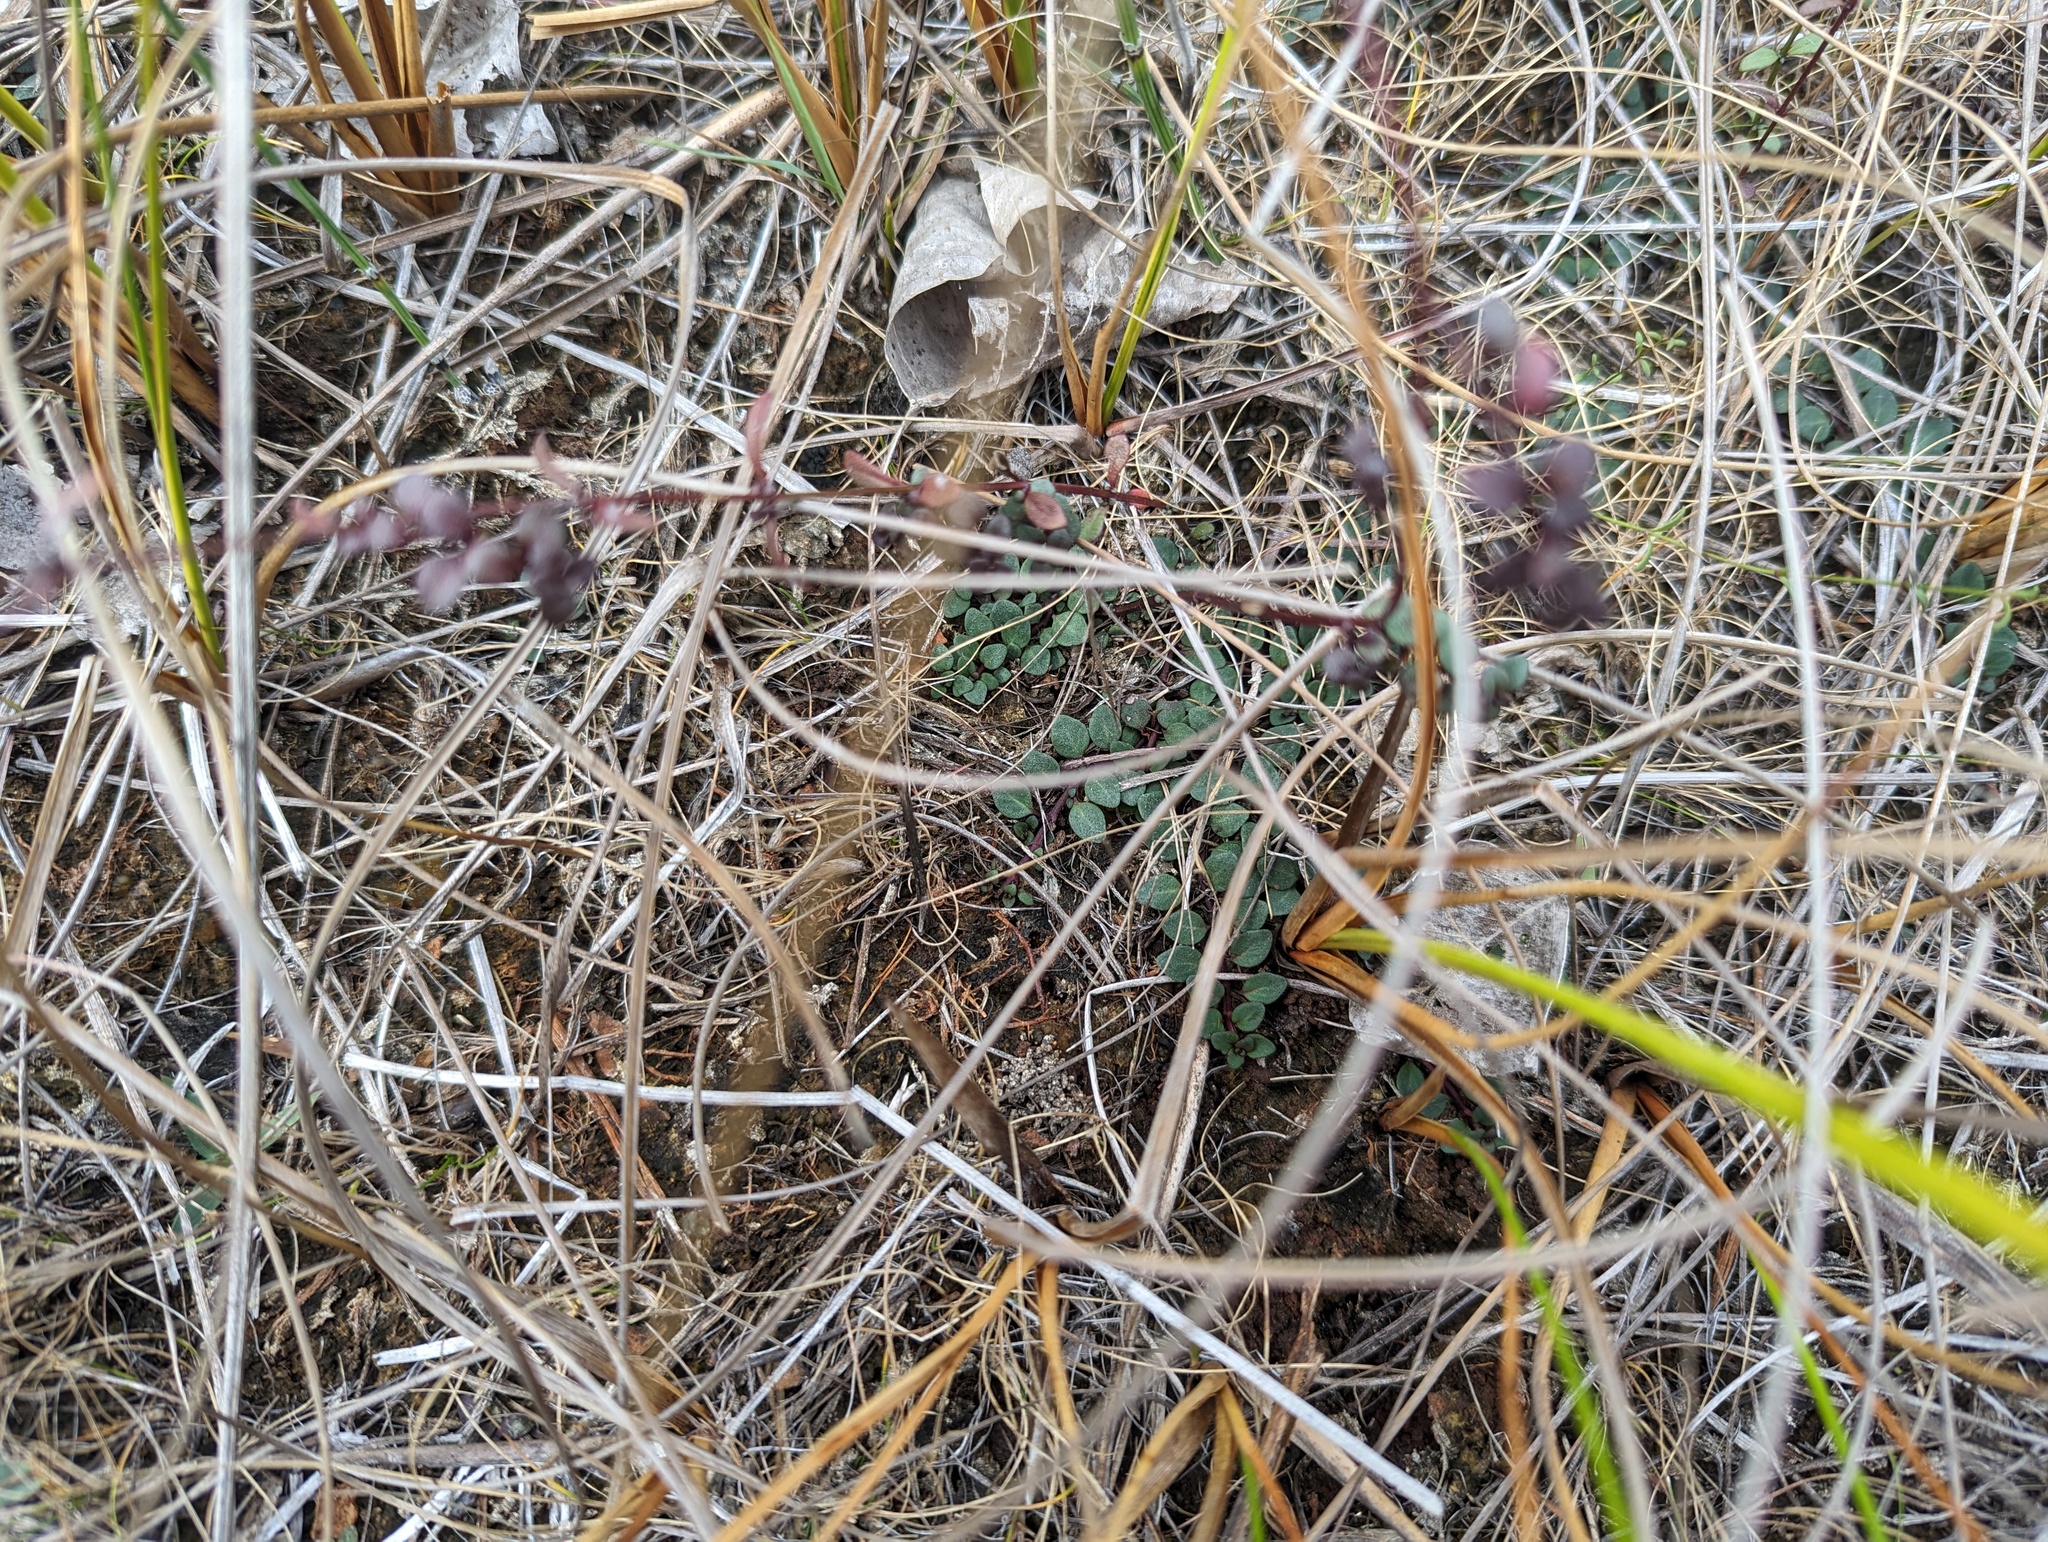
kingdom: Plantae
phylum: Tracheophyta
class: Magnoliopsida
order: Lamiales
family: Lamiaceae
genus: Clinopodium
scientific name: Clinopodium arkansanum
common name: Limestone calamint
